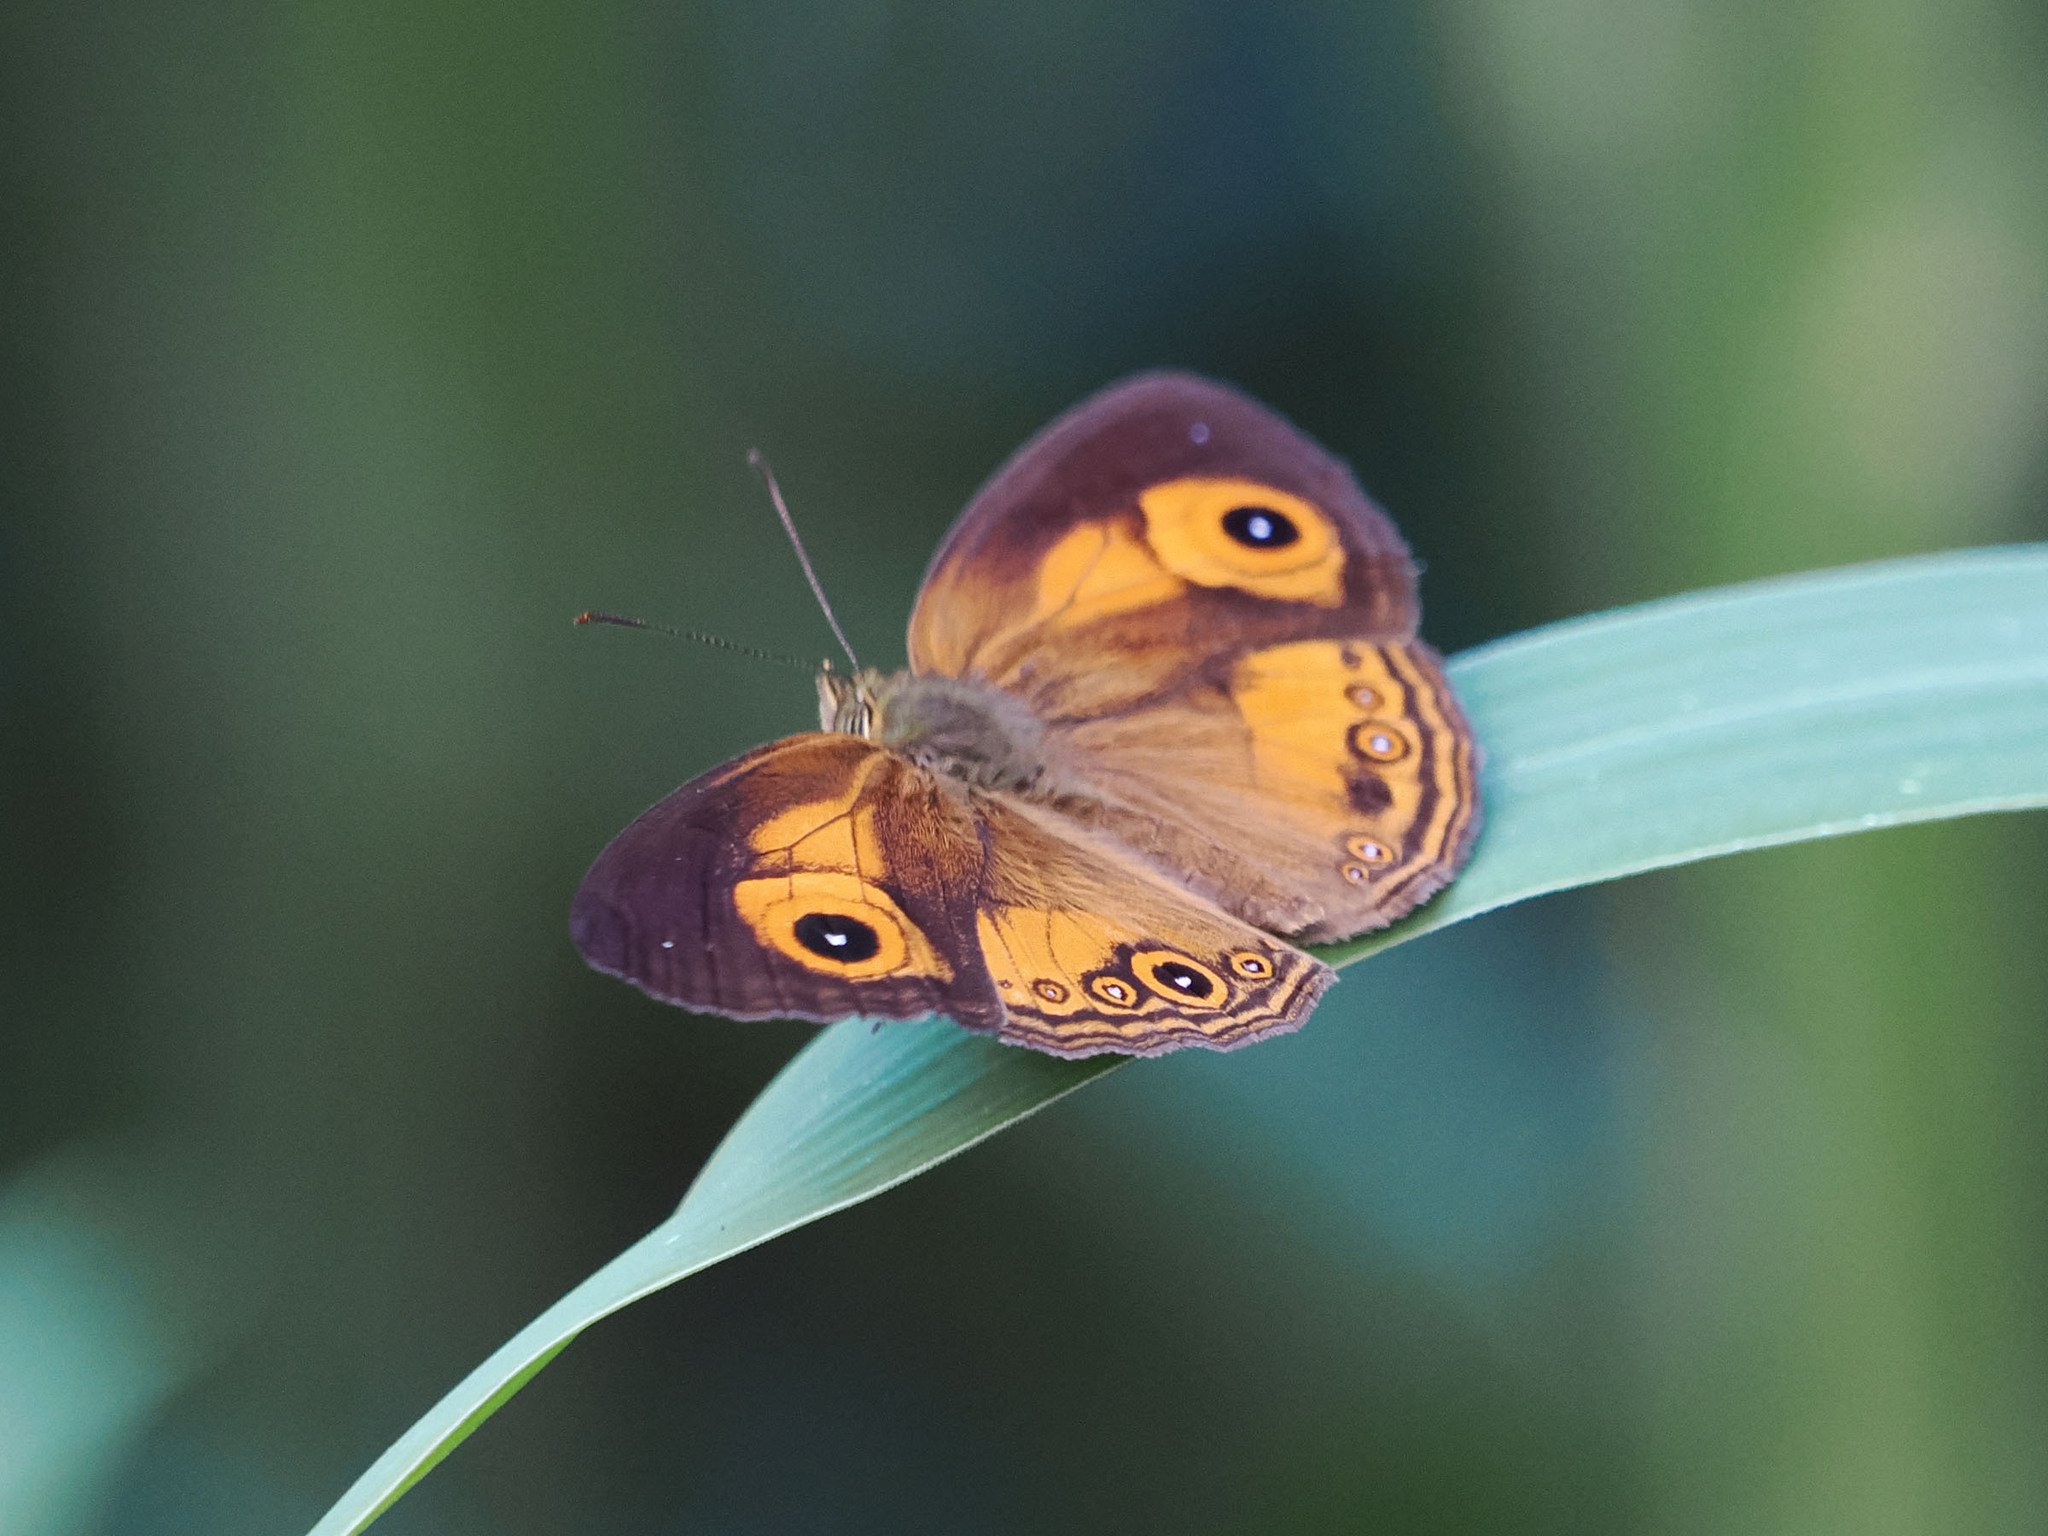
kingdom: Animalia
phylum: Arthropoda
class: Insecta
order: Lepidoptera
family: Nymphalidae
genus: Mycalesis
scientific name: Mycalesis ita
